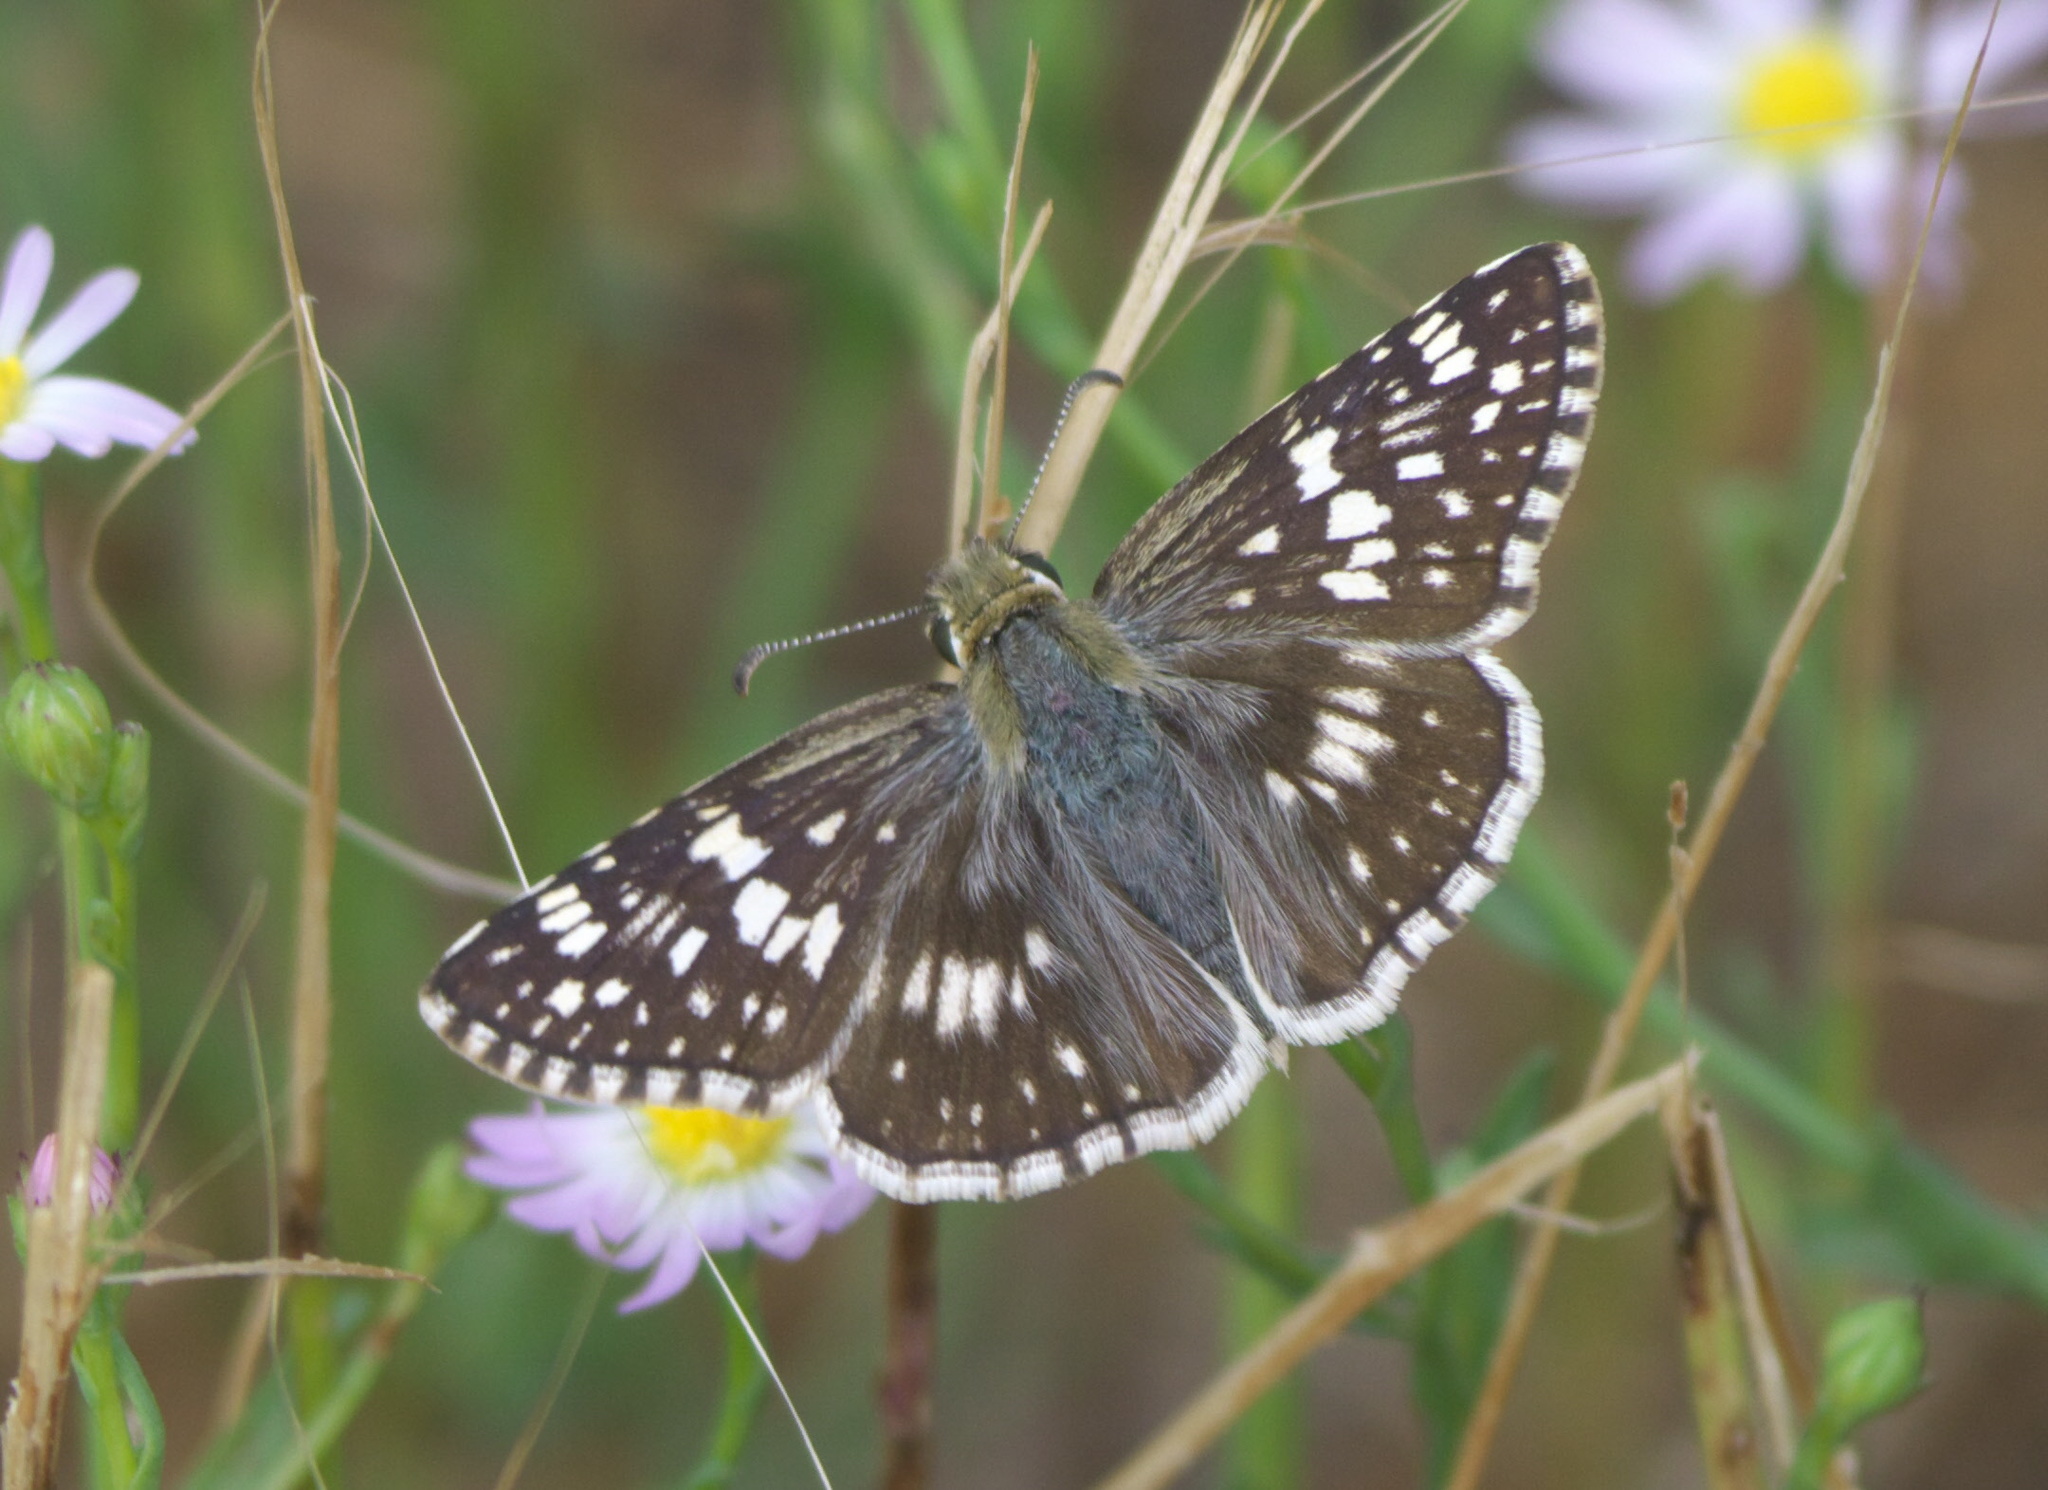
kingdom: Animalia
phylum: Arthropoda
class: Insecta
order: Lepidoptera
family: Hesperiidae
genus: Burnsius
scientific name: Burnsius communis
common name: Common checkered-skipper
